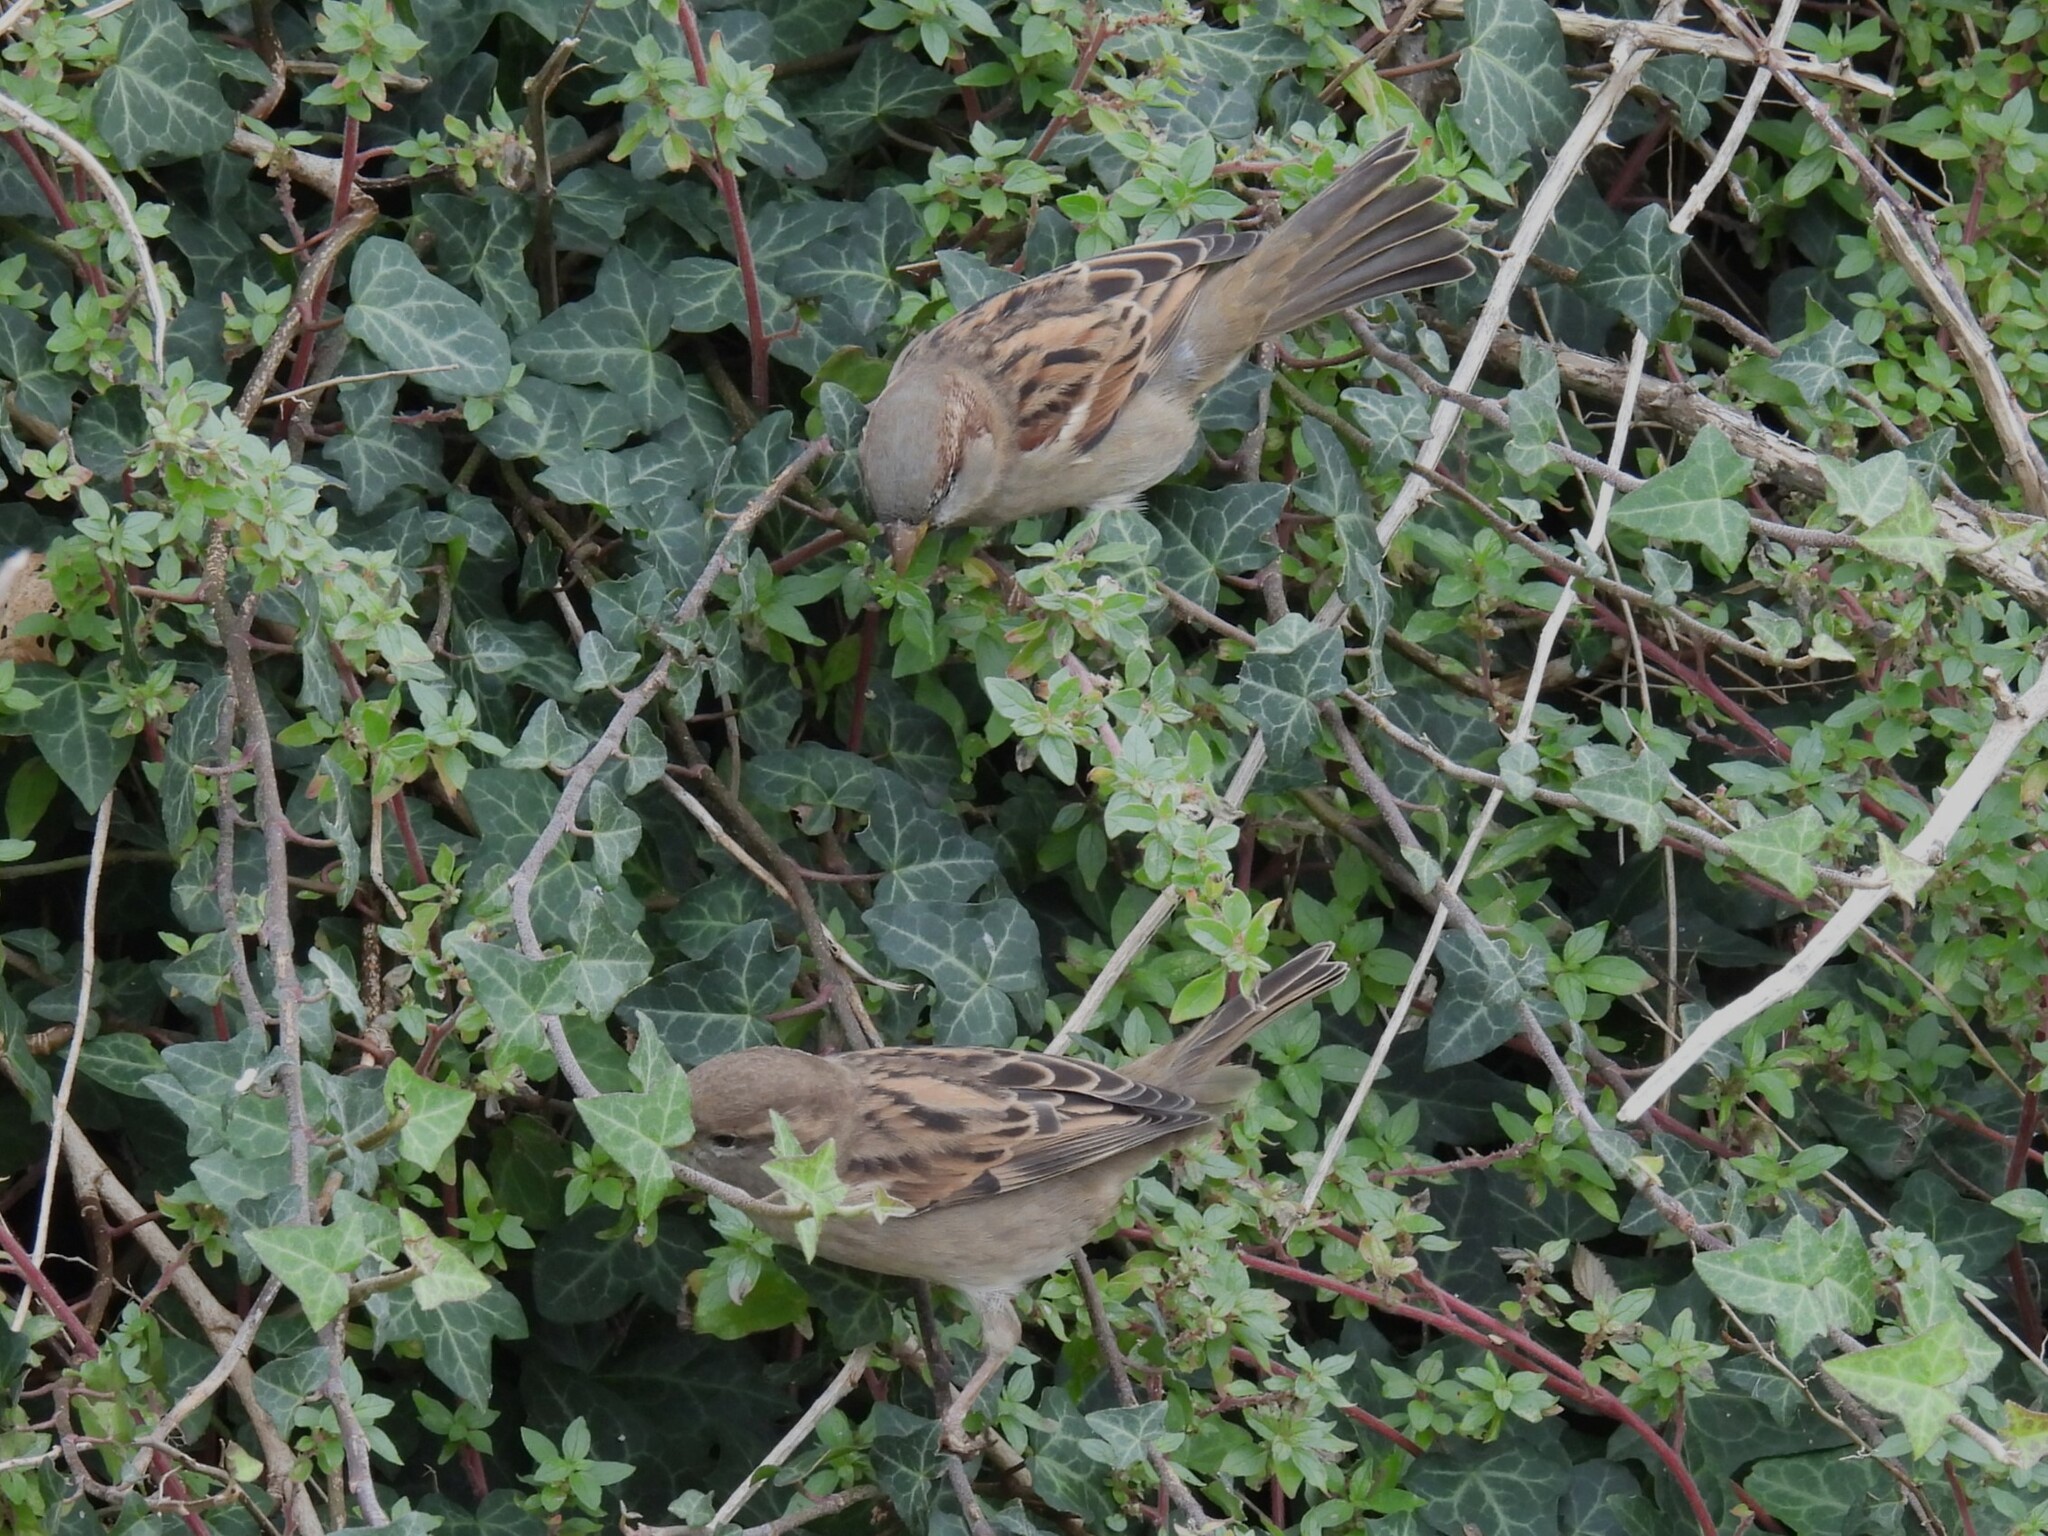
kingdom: Animalia
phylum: Chordata
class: Aves
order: Passeriformes
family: Passeridae
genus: Passer
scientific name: Passer domesticus
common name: House sparrow
